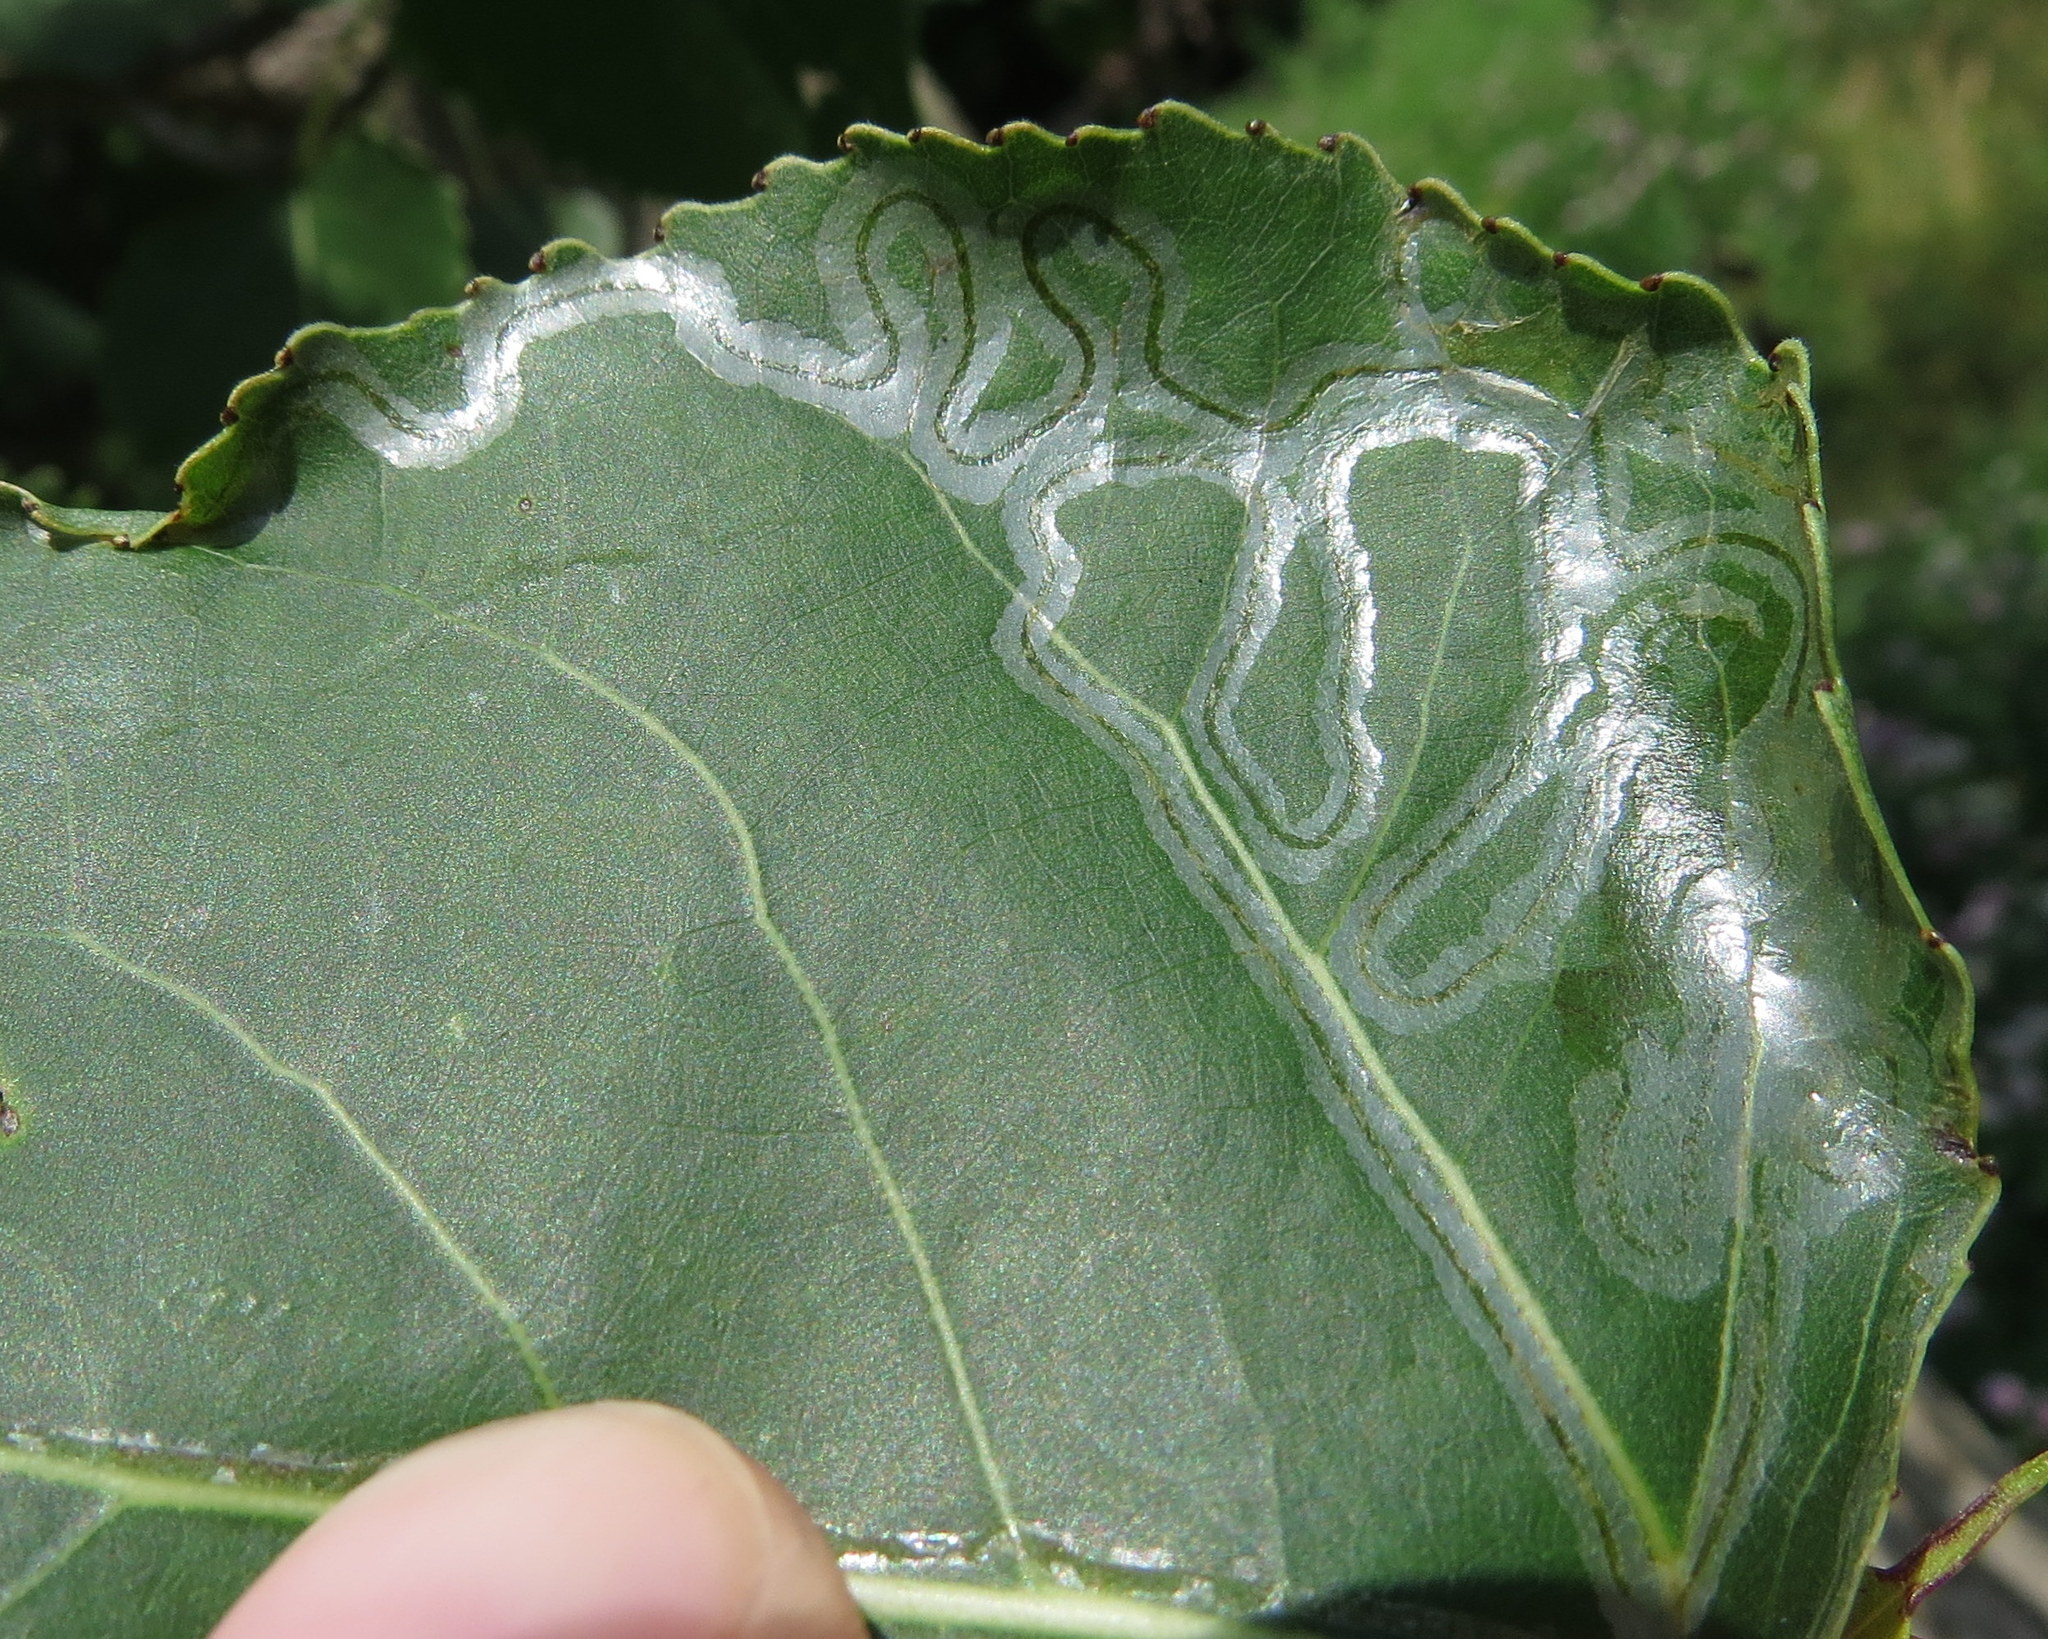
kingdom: Animalia
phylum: Arthropoda
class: Insecta
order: Lepidoptera
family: Gracillariidae
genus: Phyllocnistis
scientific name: Phyllocnistis populiella
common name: Aspen serpentine leafminer moth
